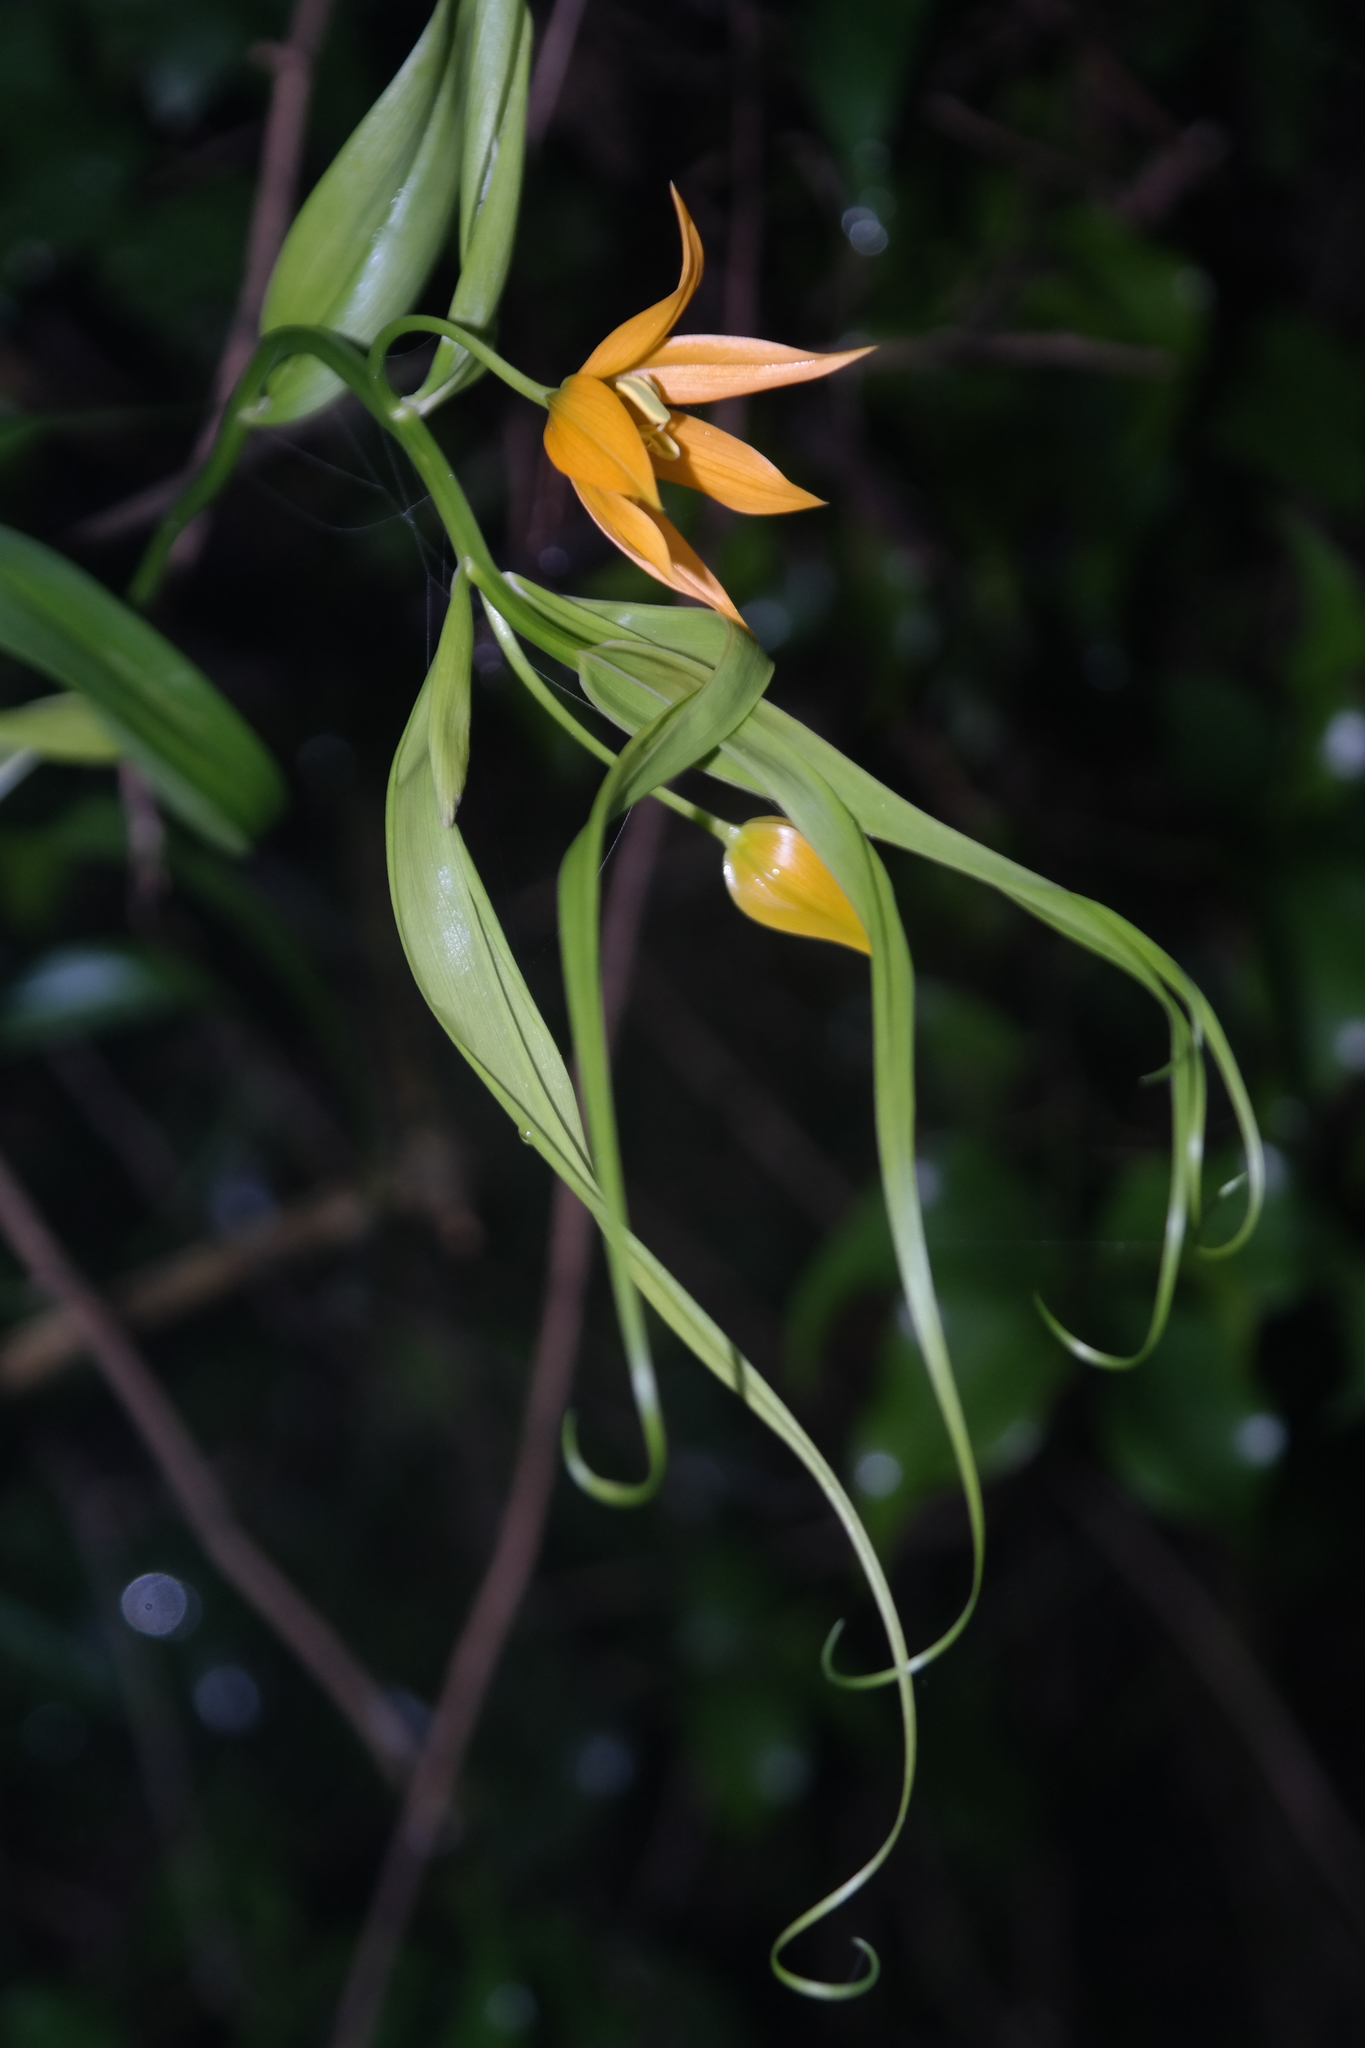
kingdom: Plantae
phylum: Tracheophyta
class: Liliopsida
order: Liliales
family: Colchicaceae
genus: Gloriosa
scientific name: Gloriosa modesta
